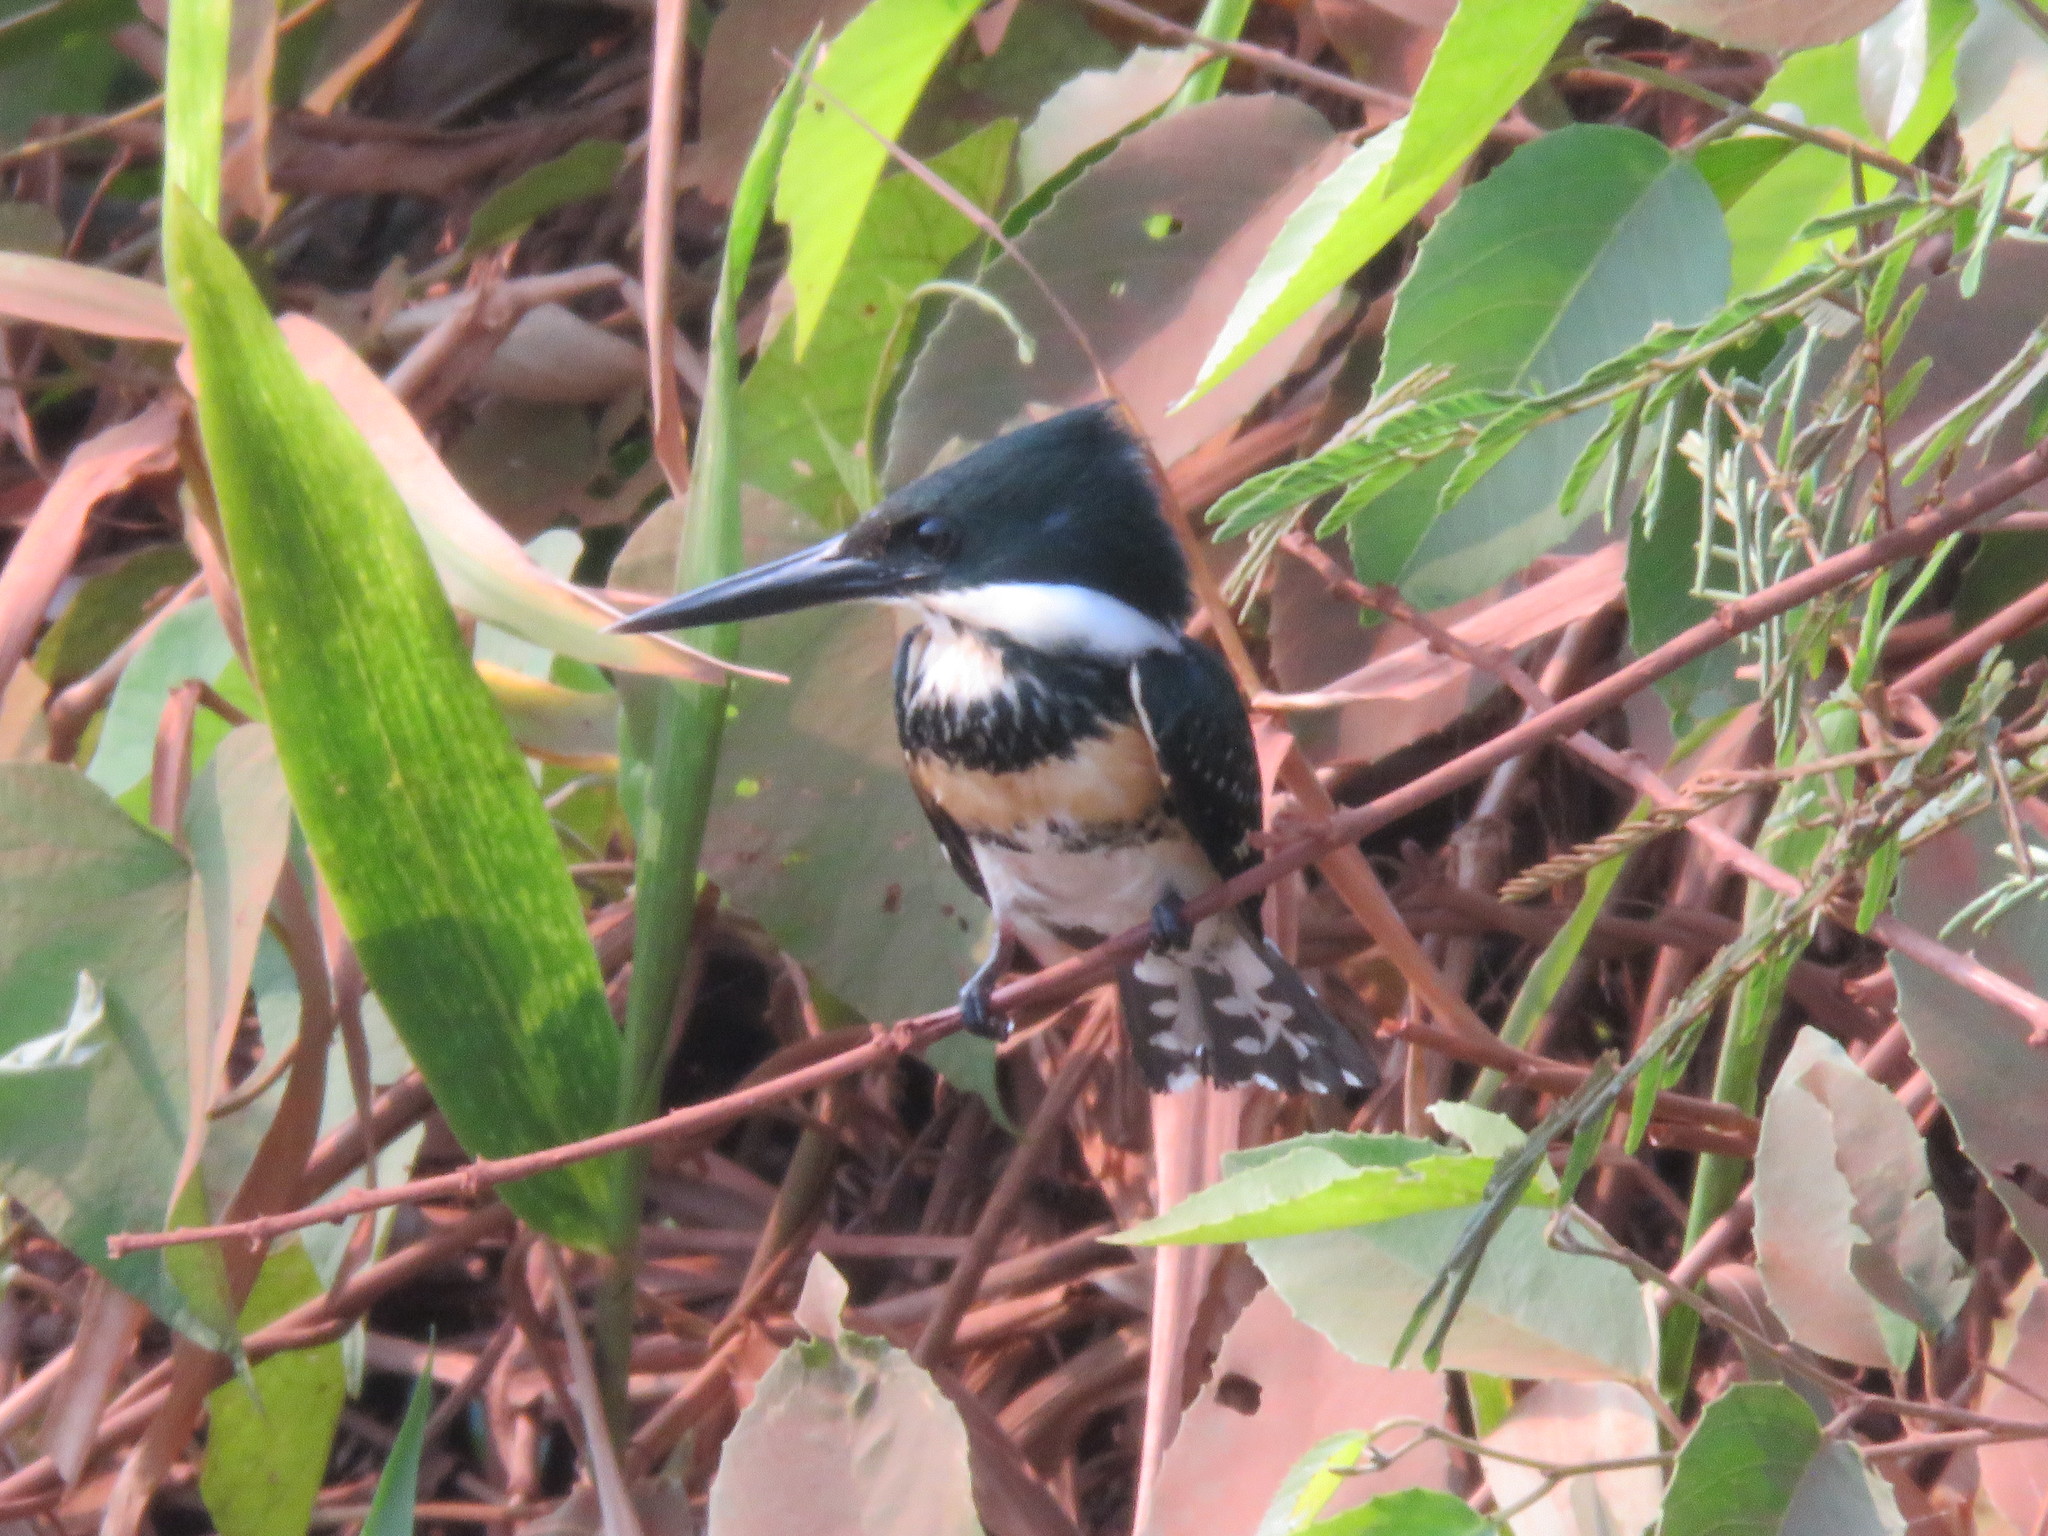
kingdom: Animalia
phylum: Chordata
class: Aves
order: Coraciiformes
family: Alcedinidae
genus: Chloroceryle
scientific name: Chloroceryle americana
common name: Green kingfisher
